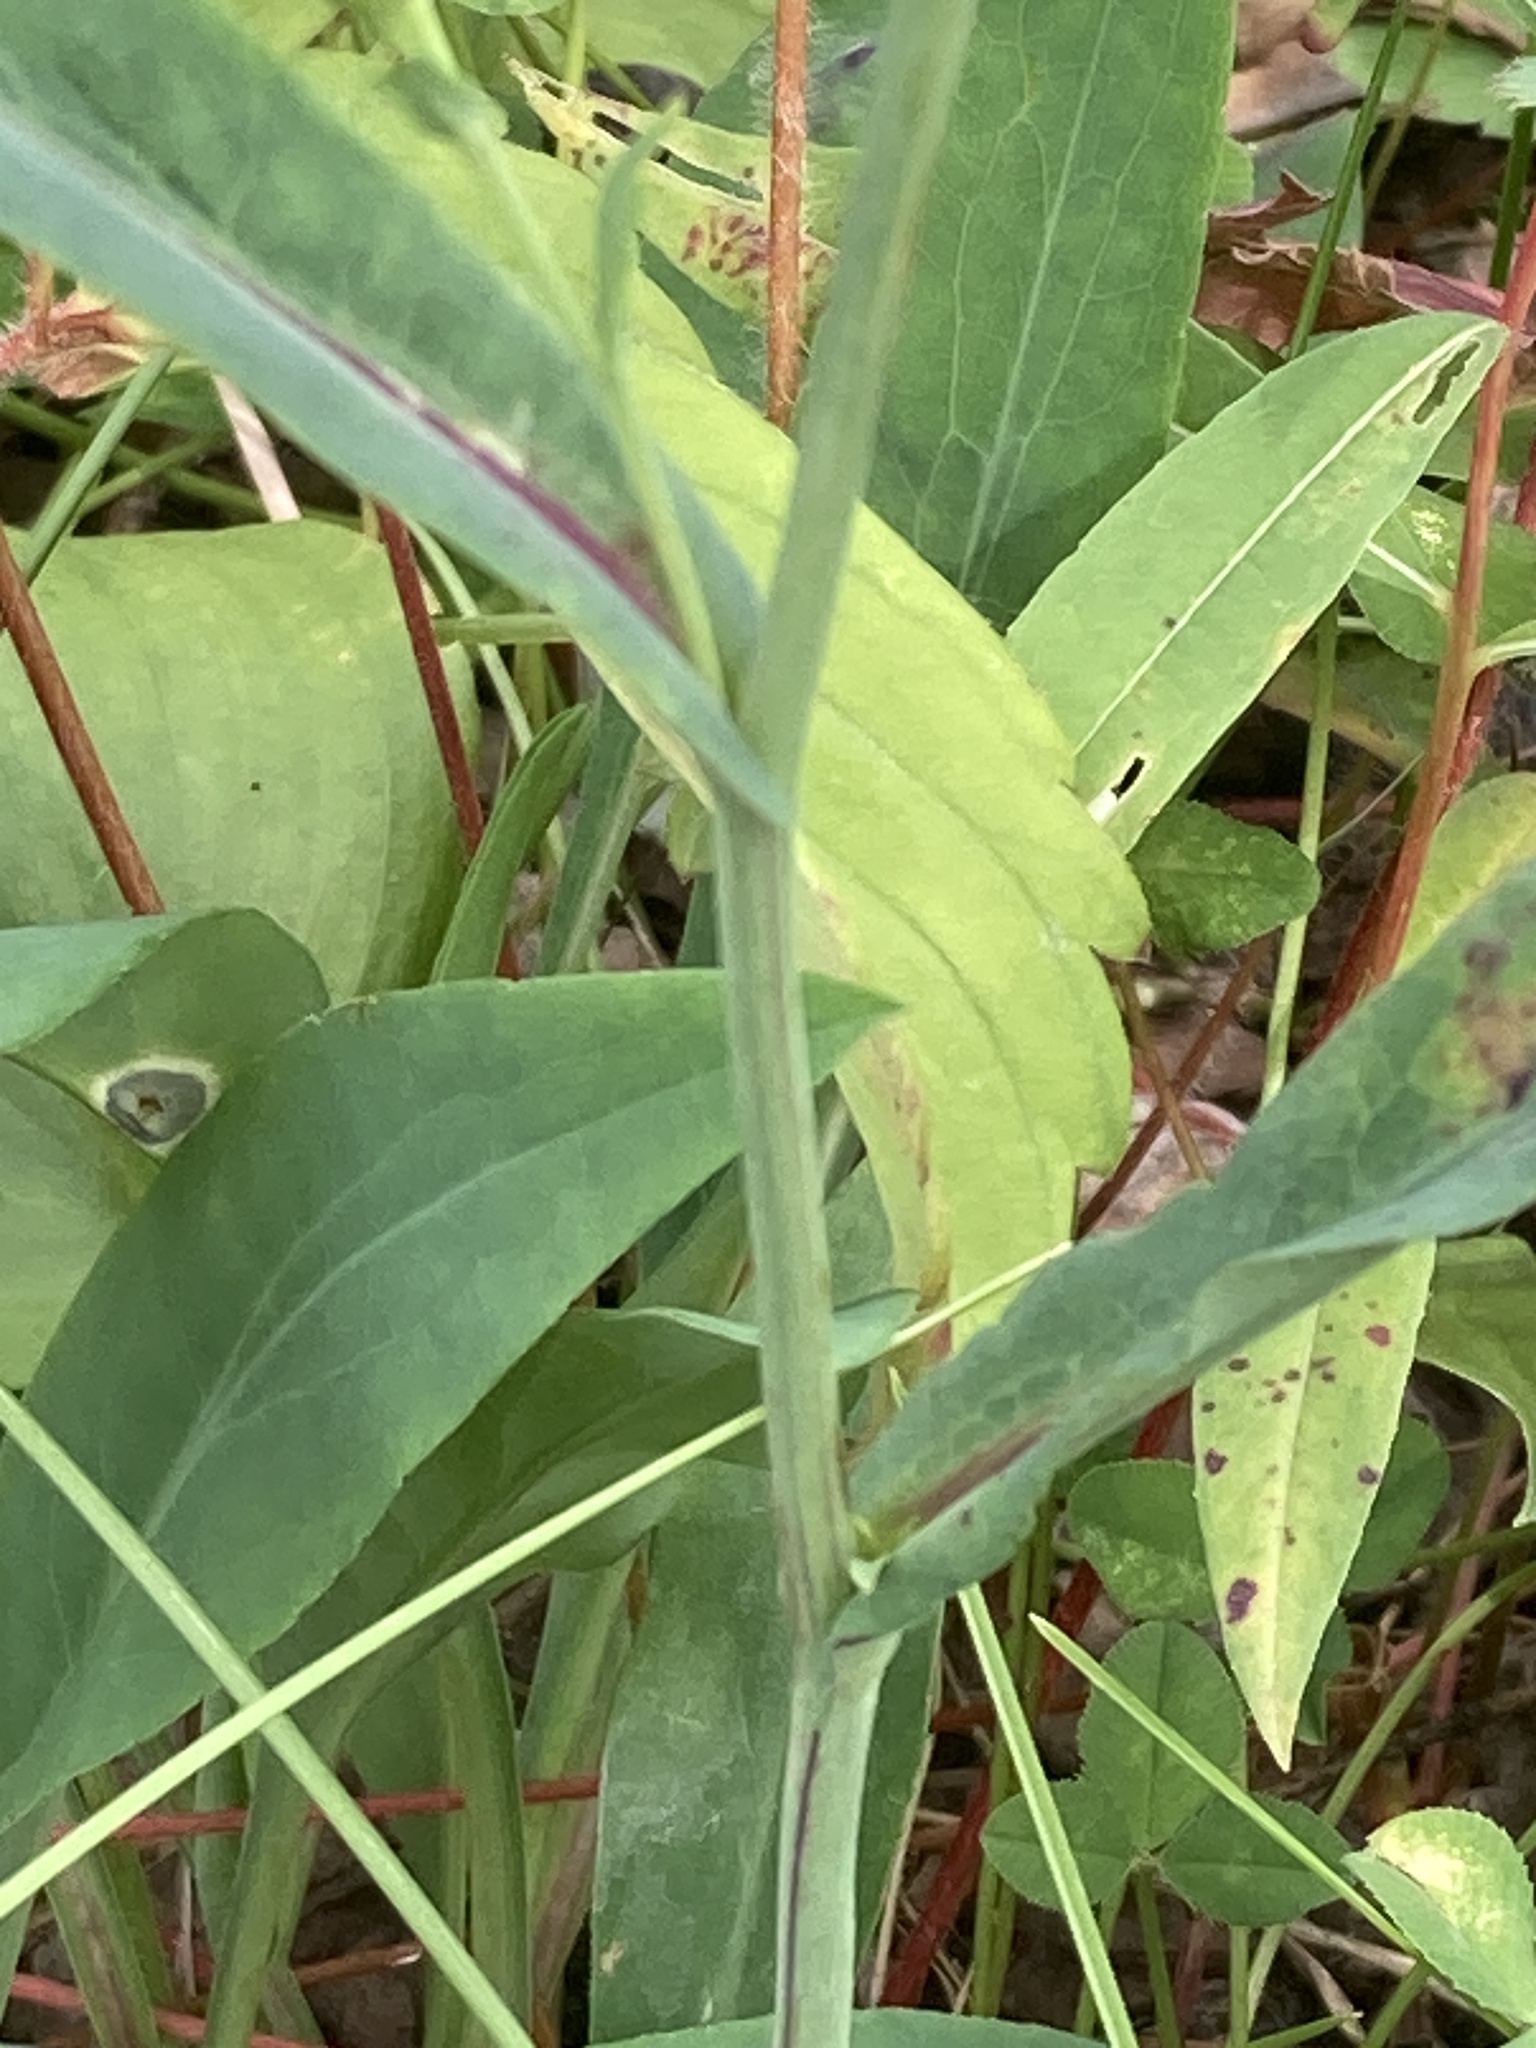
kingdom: Plantae
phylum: Tracheophyta
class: Magnoliopsida
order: Asterales
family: Asteraceae
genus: Symphyotrichum
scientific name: Symphyotrichum laeve
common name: Glaucous aster
